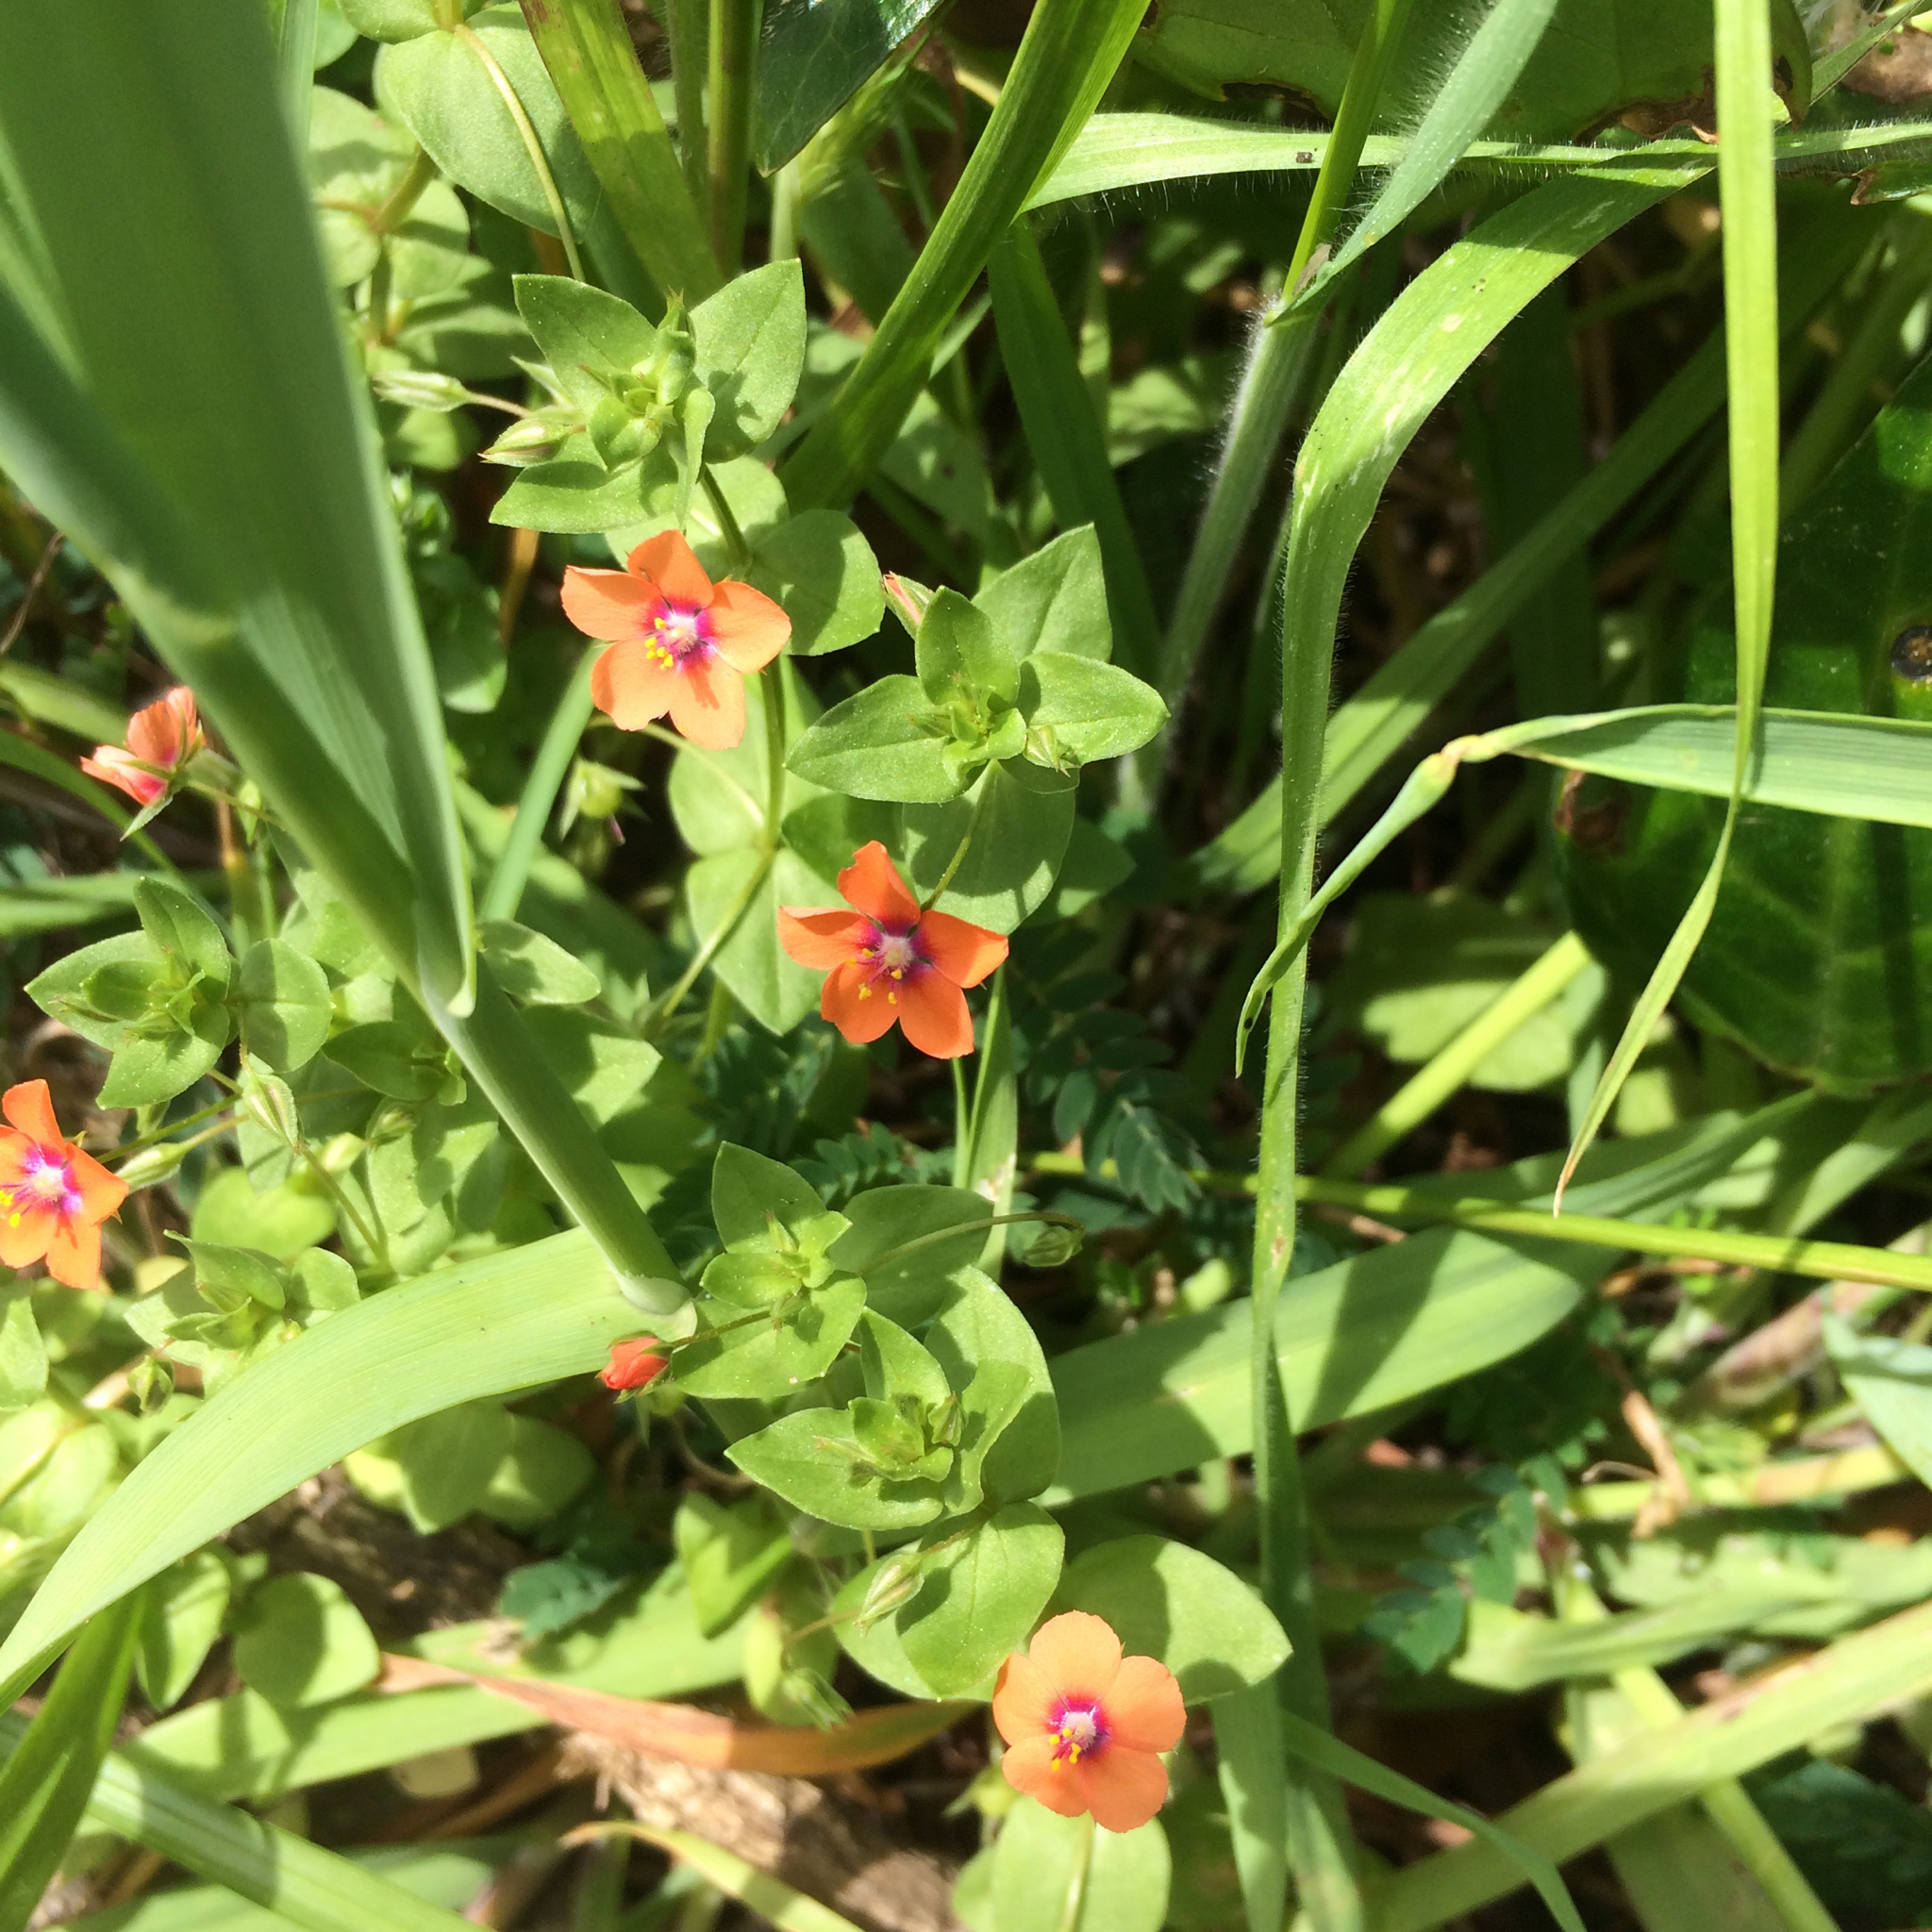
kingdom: Plantae
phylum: Tracheophyta
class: Magnoliopsida
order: Ericales
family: Primulaceae
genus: Lysimachia
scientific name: Lysimachia arvensis
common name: Scarlet pimpernel
